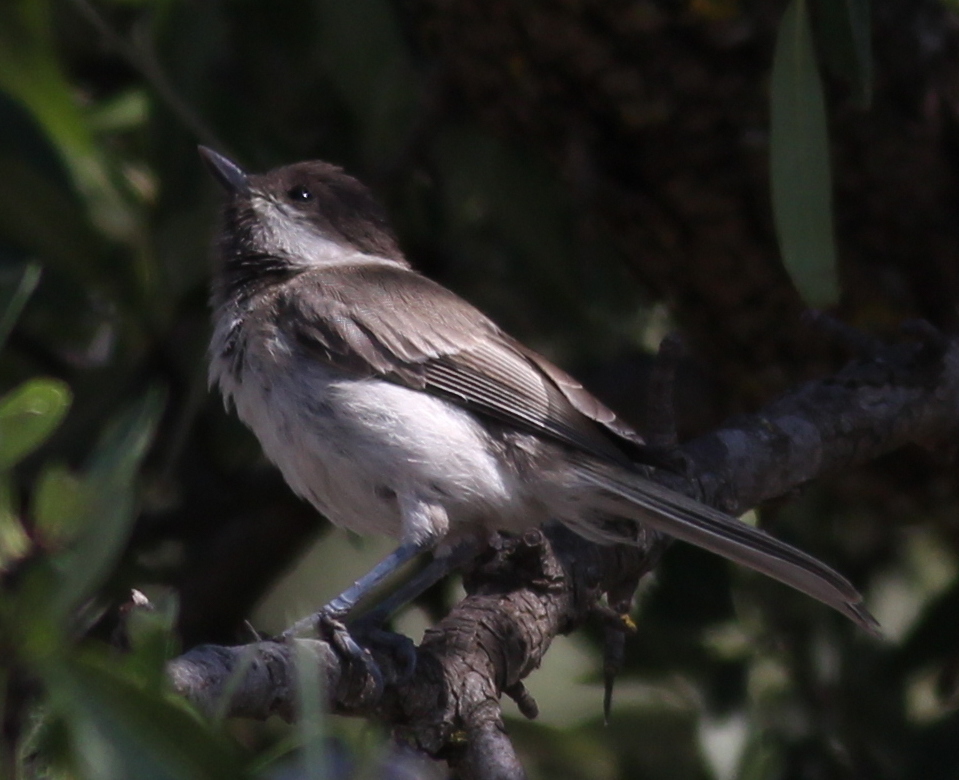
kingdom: Animalia
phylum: Chordata
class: Aves
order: Passeriformes
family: Paridae
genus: Poecile
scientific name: Poecile lugubris
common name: Sombre tit
